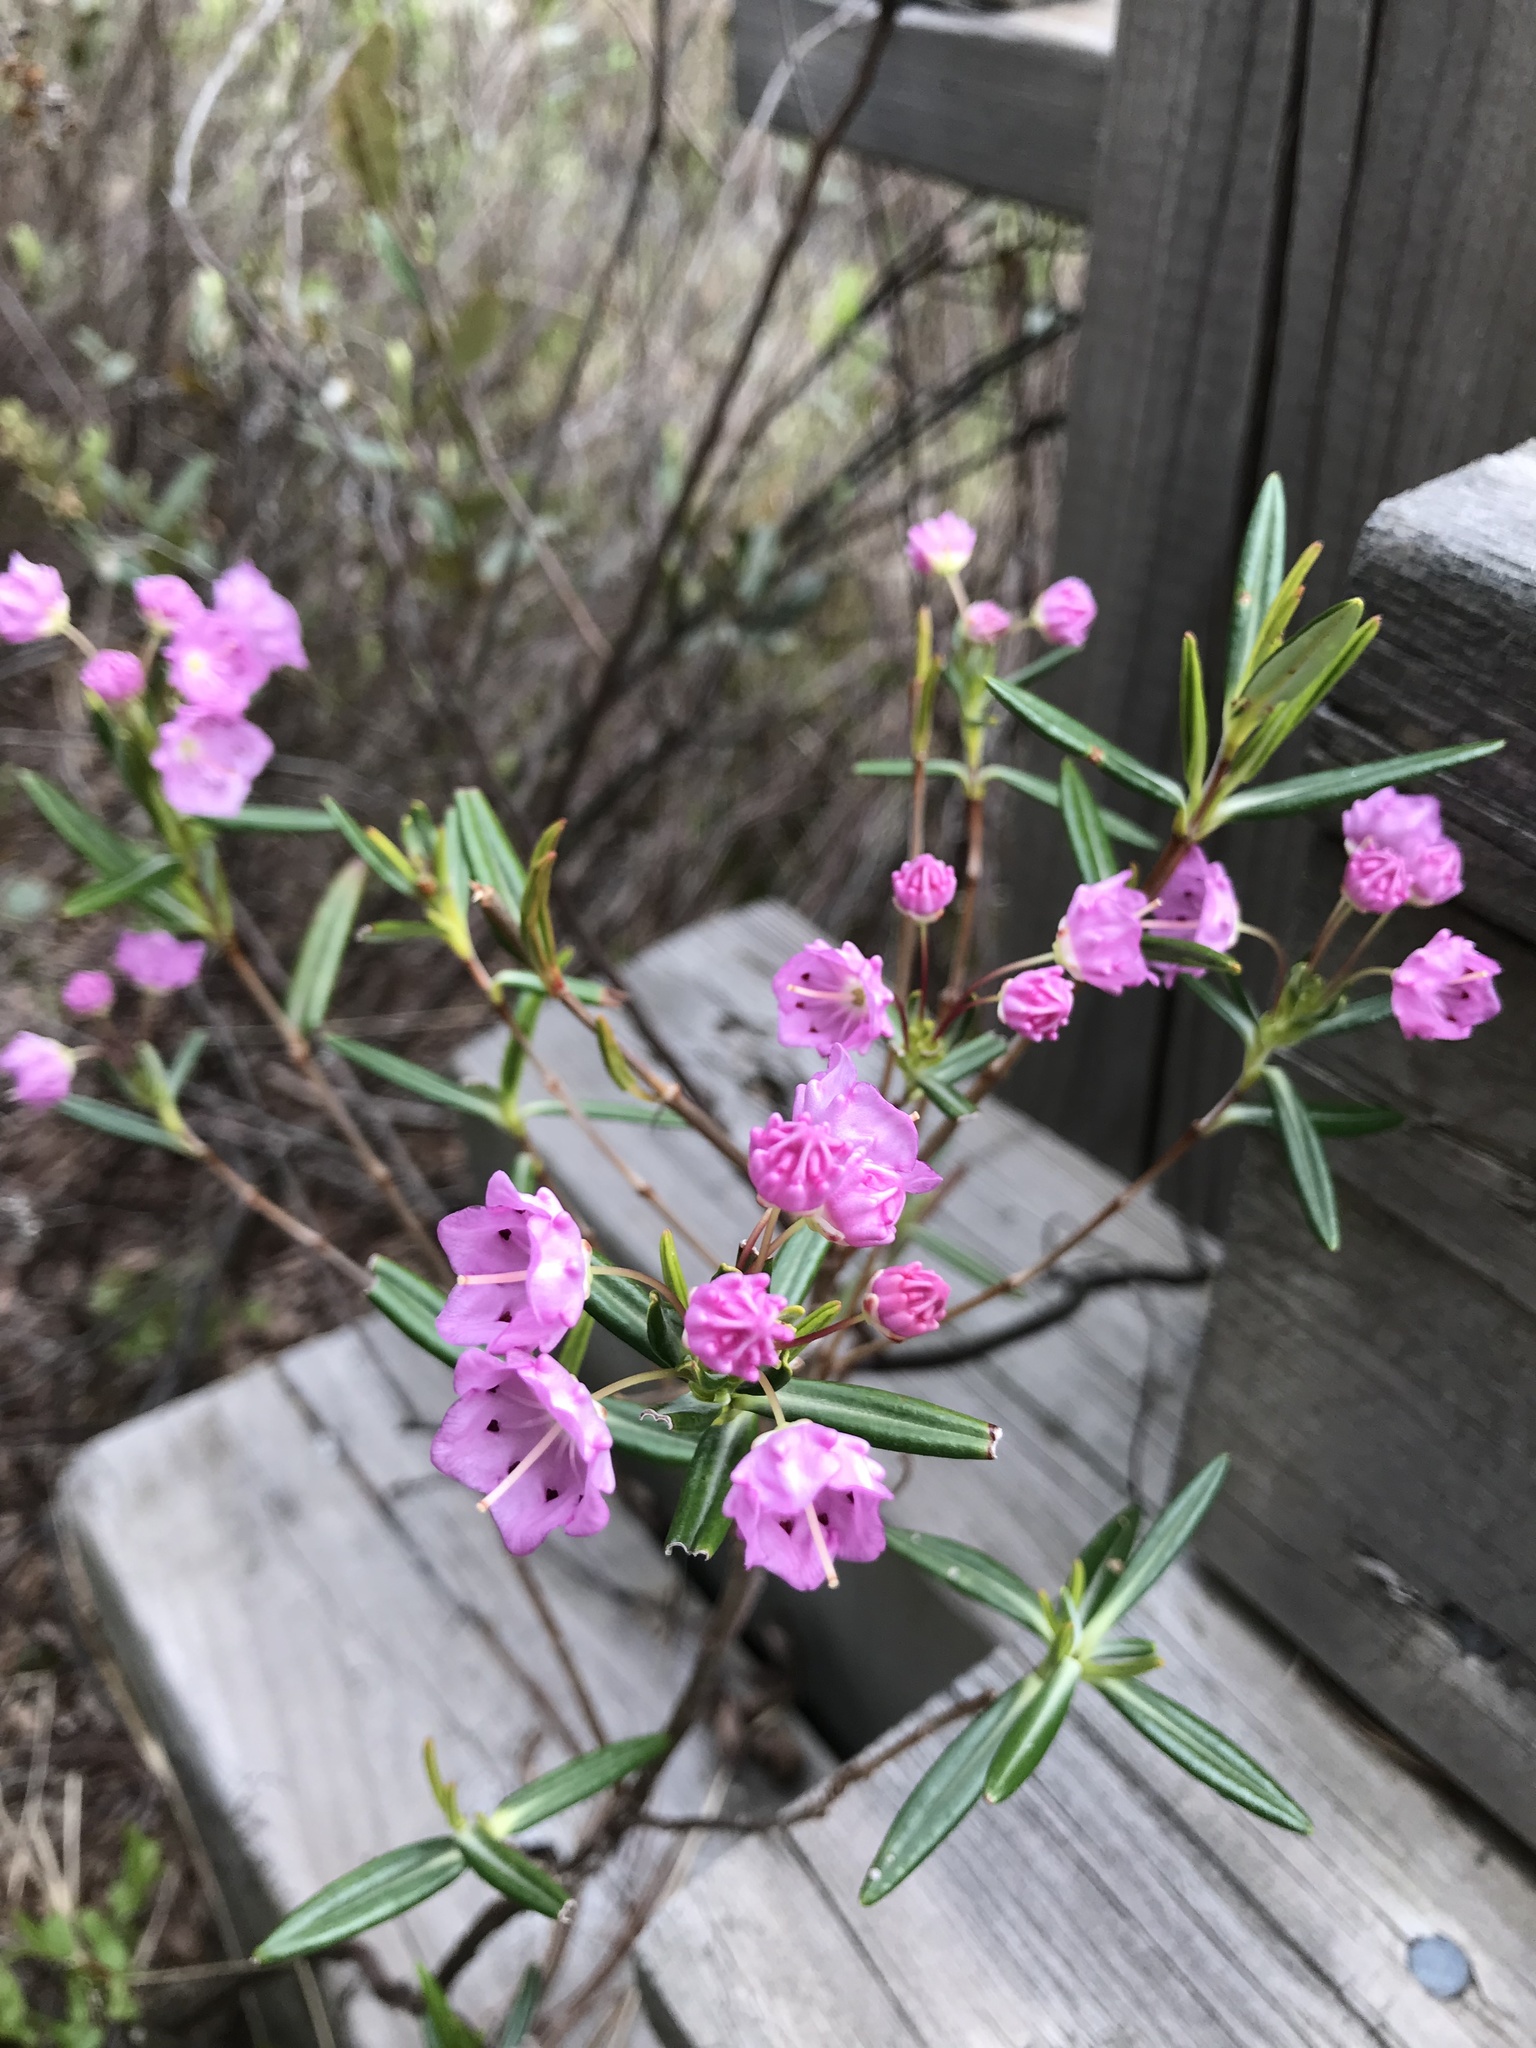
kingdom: Plantae
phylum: Tracheophyta
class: Magnoliopsida
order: Ericales
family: Ericaceae
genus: Kalmia
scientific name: Kalmia polifolia
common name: Bog-laurel
